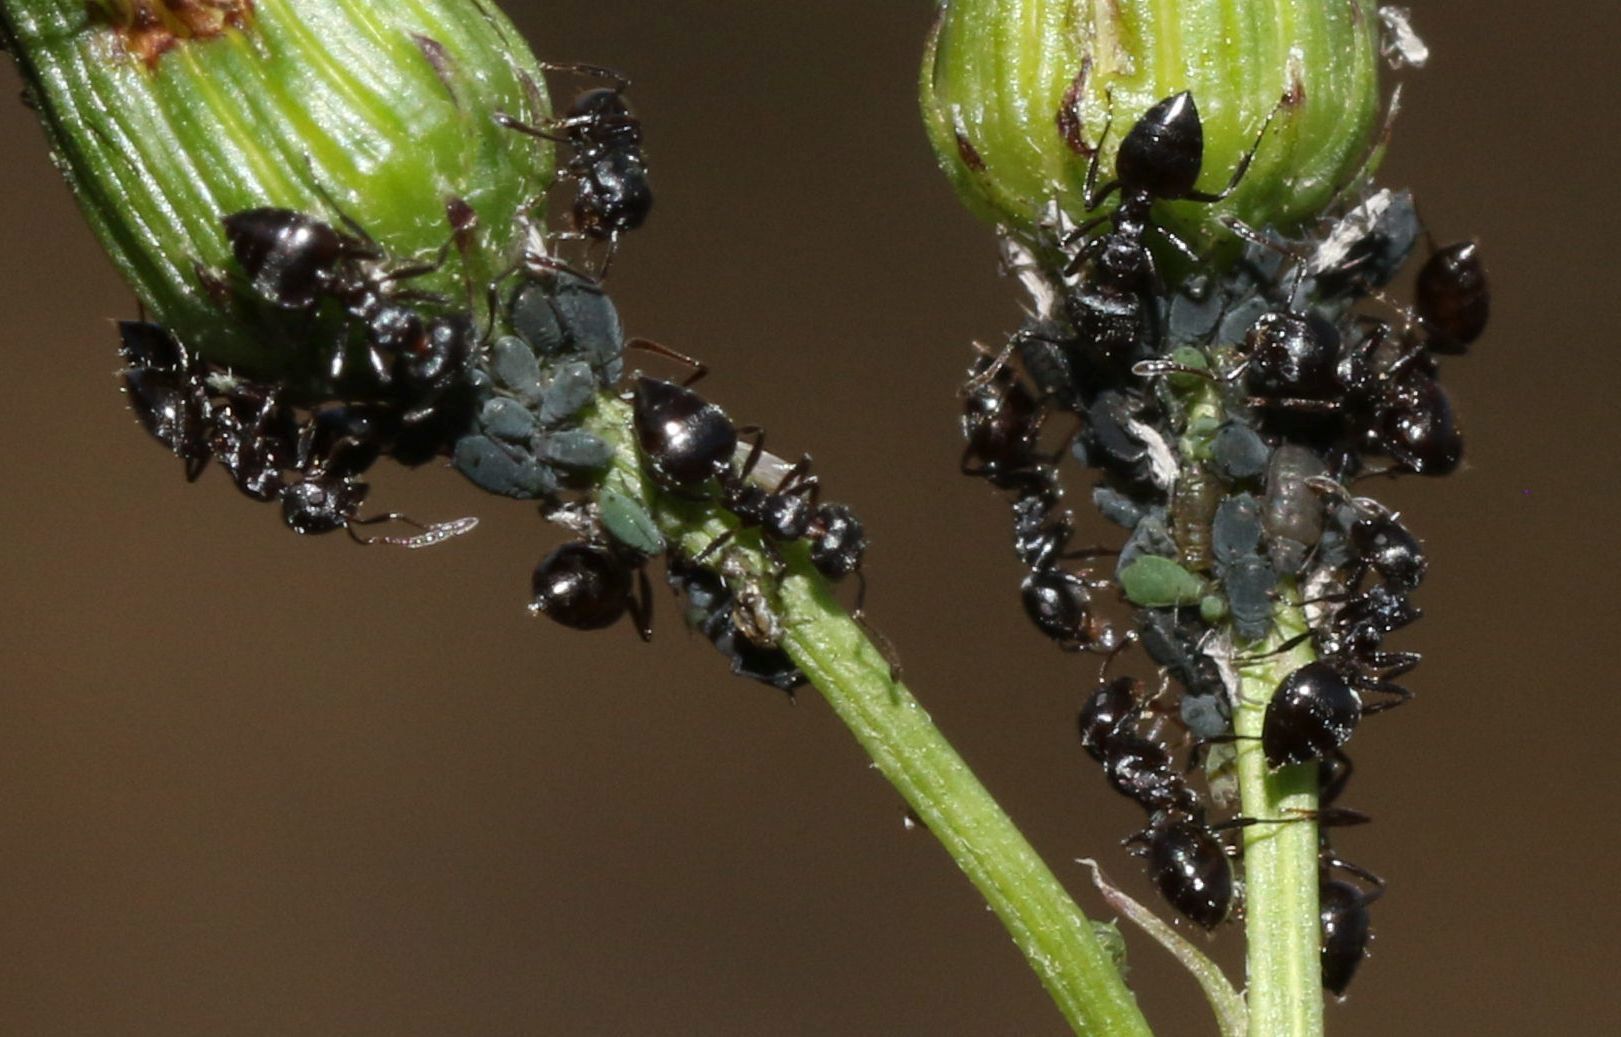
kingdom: Animalia
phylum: Arthropoda
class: Insecta
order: Hymenoptera
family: Formicidae
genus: Crematogaster
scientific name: Crematogaster peringueyi
